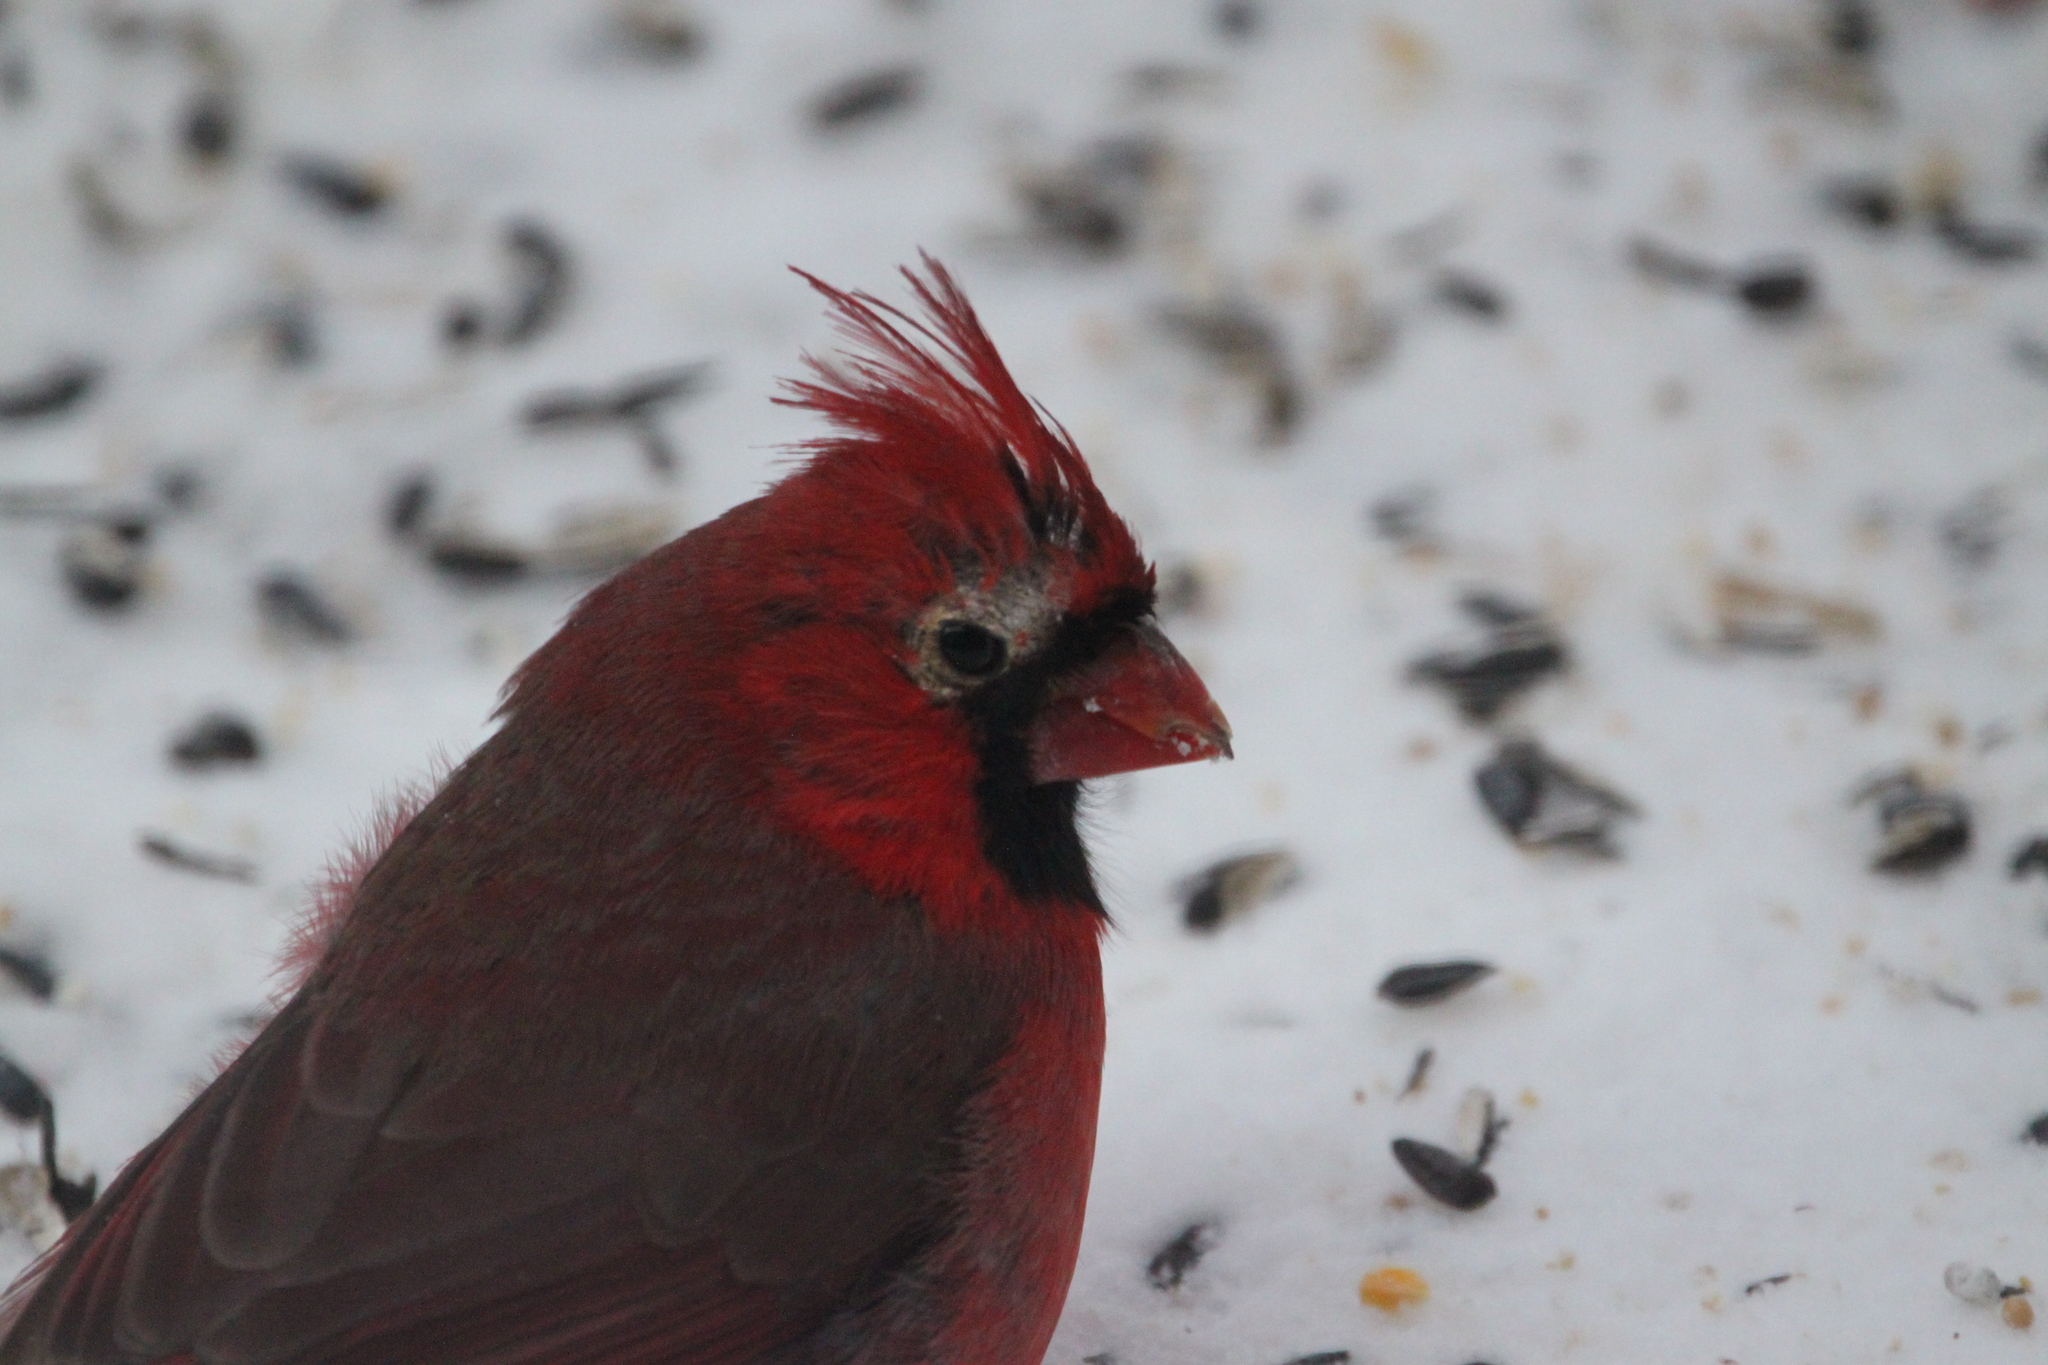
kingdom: Animalia
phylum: Chordata
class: Aves
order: Passeriformes
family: Cardinalidae
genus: Cardinalis
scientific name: Cardinalis cardinalis
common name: Northern cardinal
